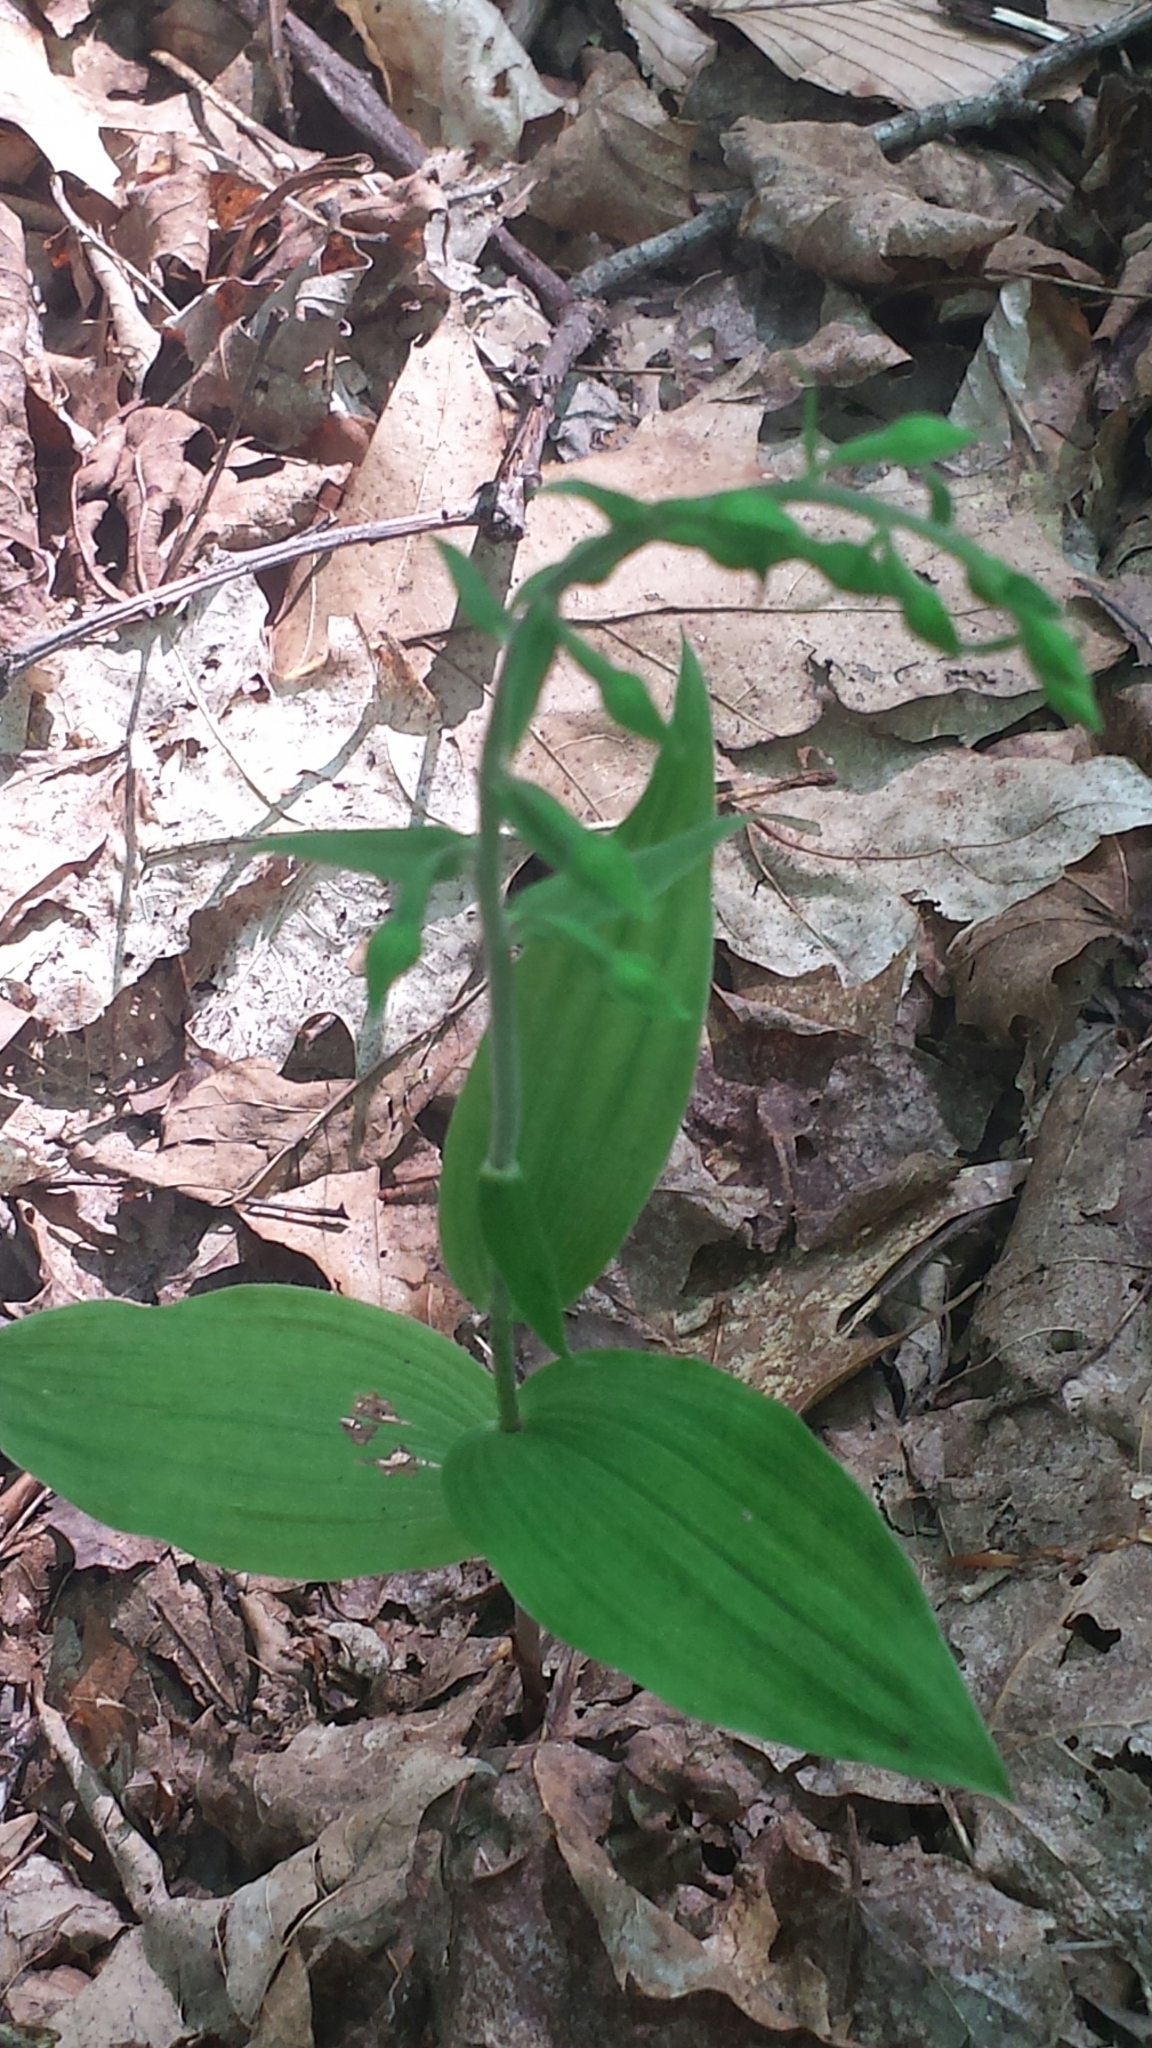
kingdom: Plantae
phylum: Tracheophyta
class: Liliopsida
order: Asparagales
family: Orchidaceae
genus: Epipactis
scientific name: Epipactis helleborine
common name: Broad-leaved helleborine
